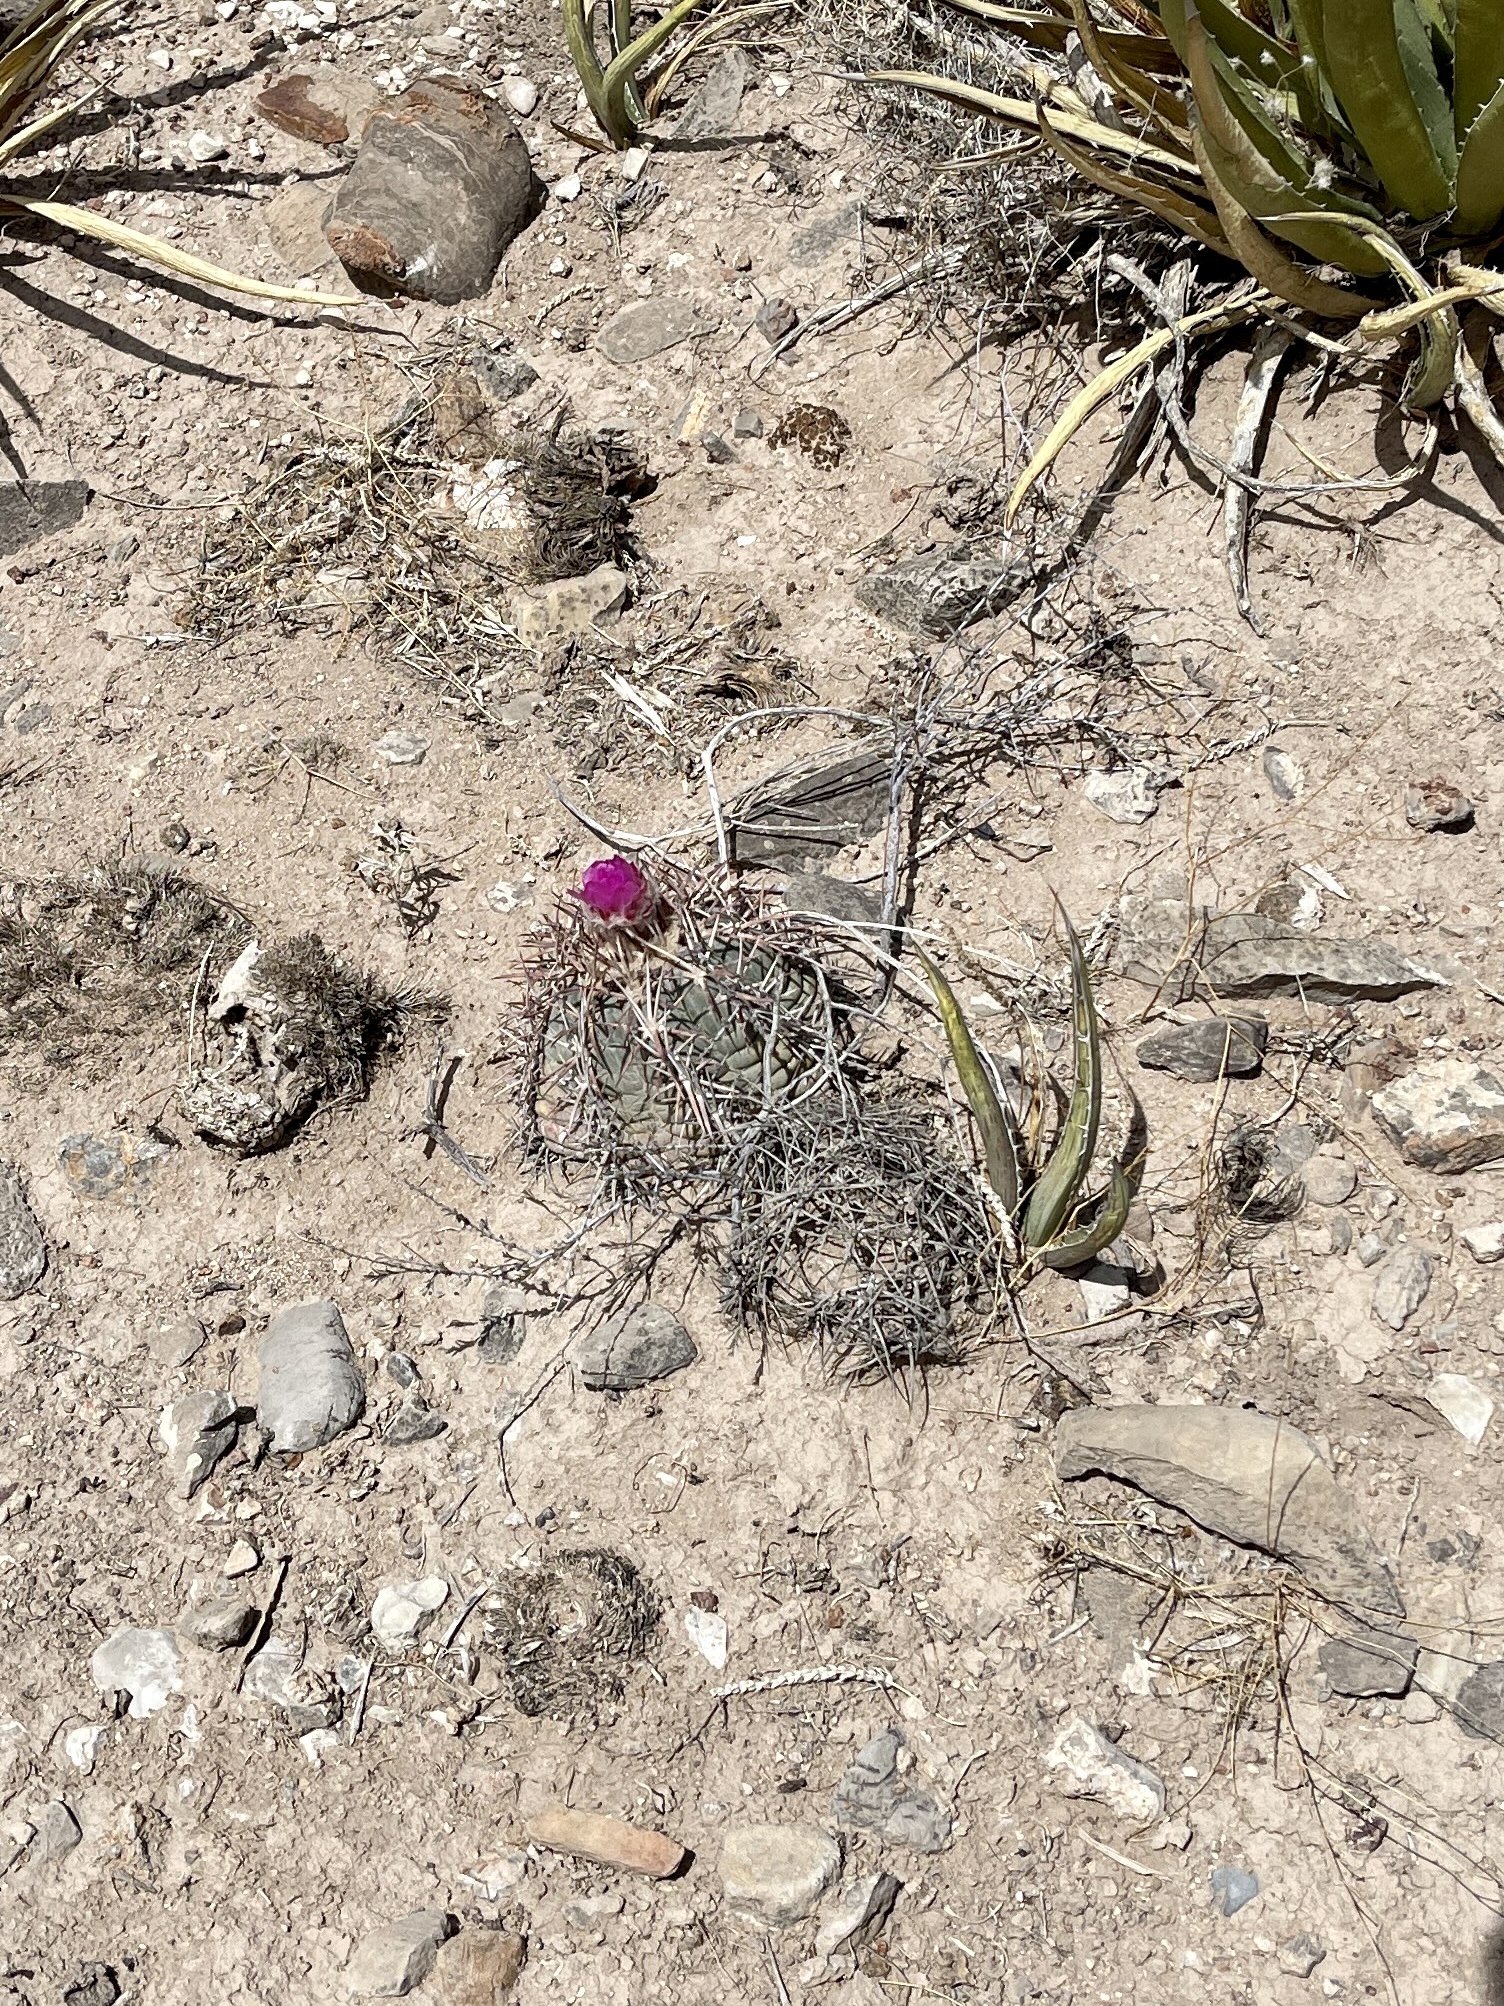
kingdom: Plantae
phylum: Tracheophyta
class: Magnoliopsida
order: Caryophyllales
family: Cactaceae
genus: Echinocactus
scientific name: Echinocactus horizonthalonius
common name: Devilshead
